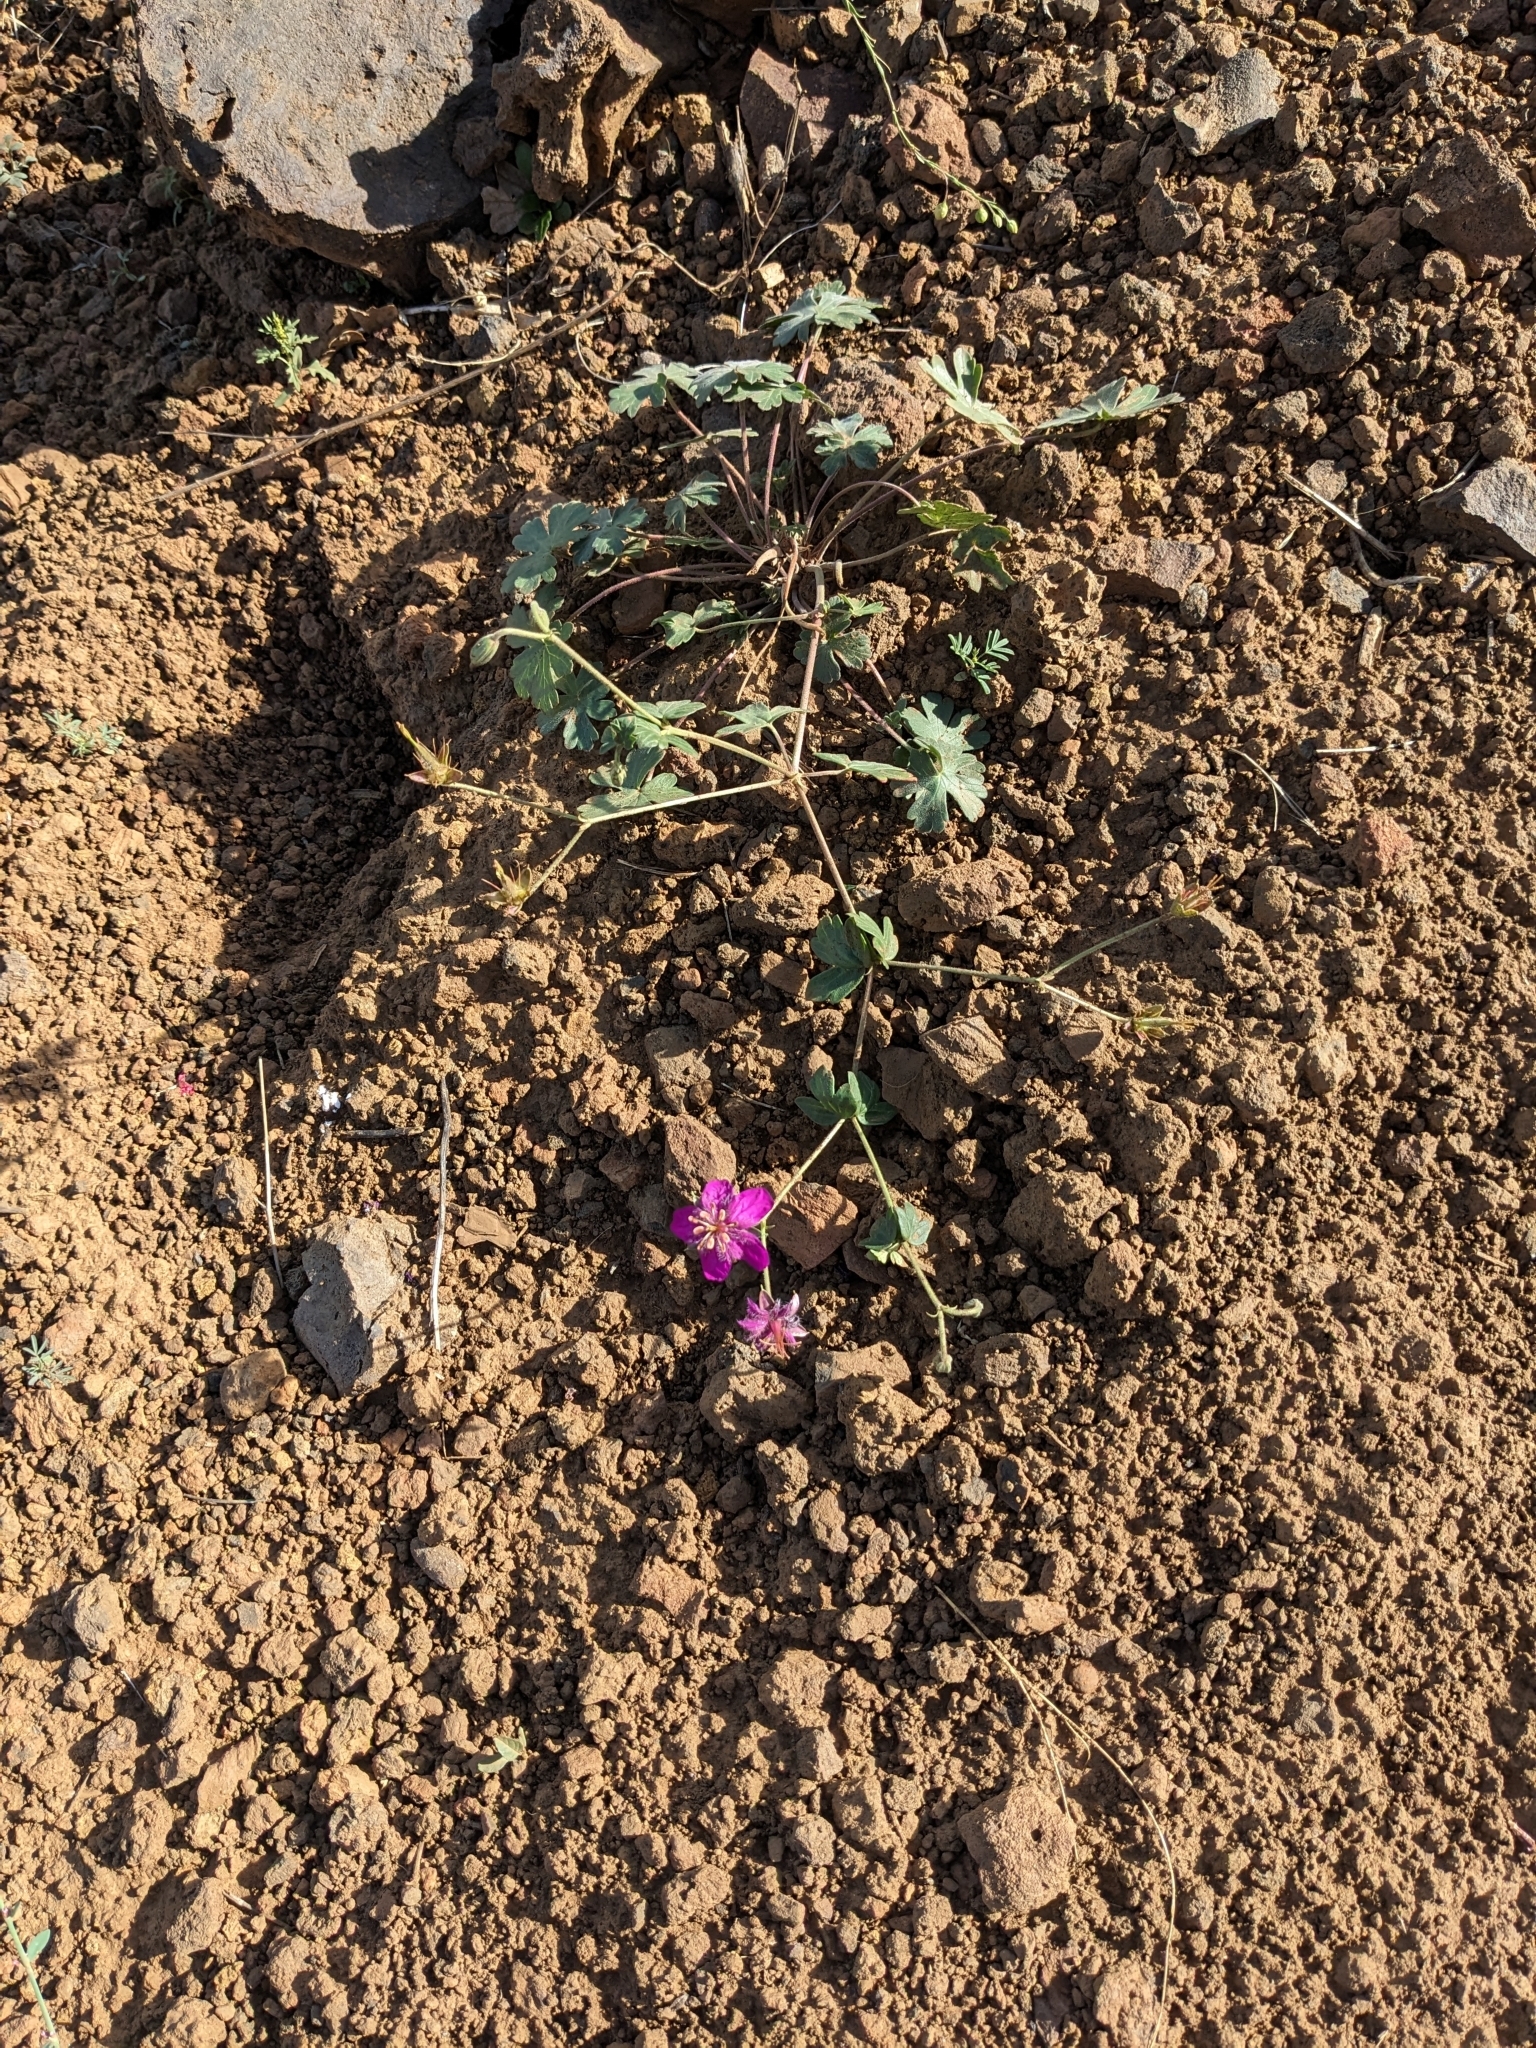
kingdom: Plantae
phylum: Tracheophyta
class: Magnoliopsida
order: Geraniales
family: Geraniaceae
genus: Geranium
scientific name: Geranium caespitosum
